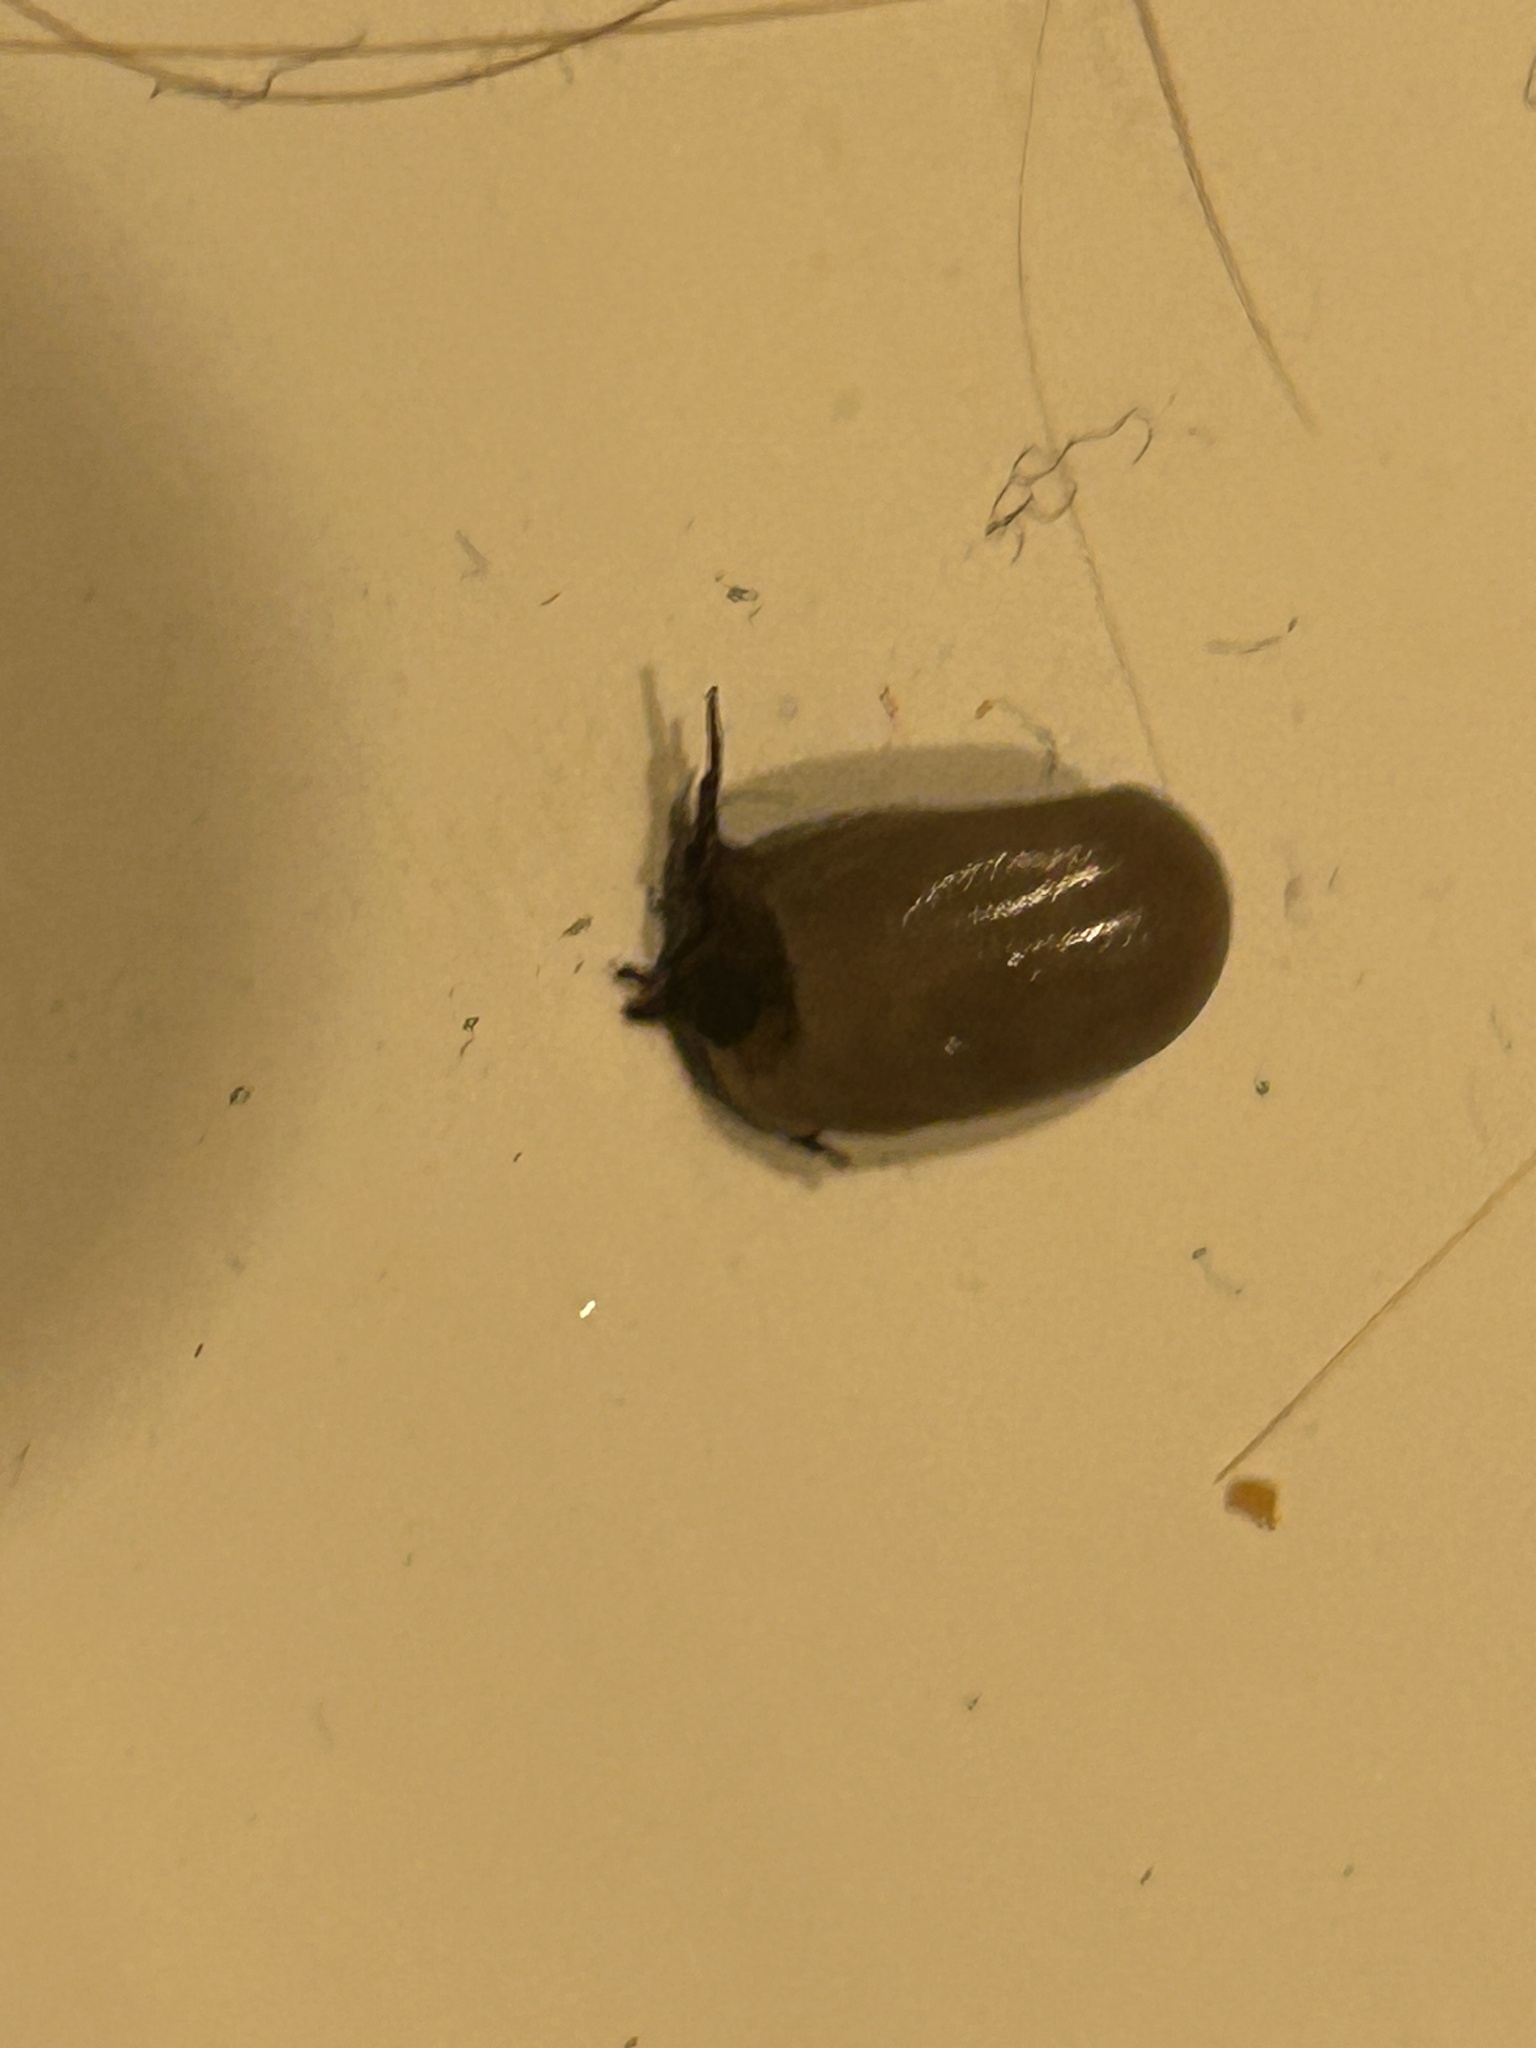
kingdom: Animalia
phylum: Arthropoda
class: Arachnida
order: Ixodida
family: Ixodidae
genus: Ixodes
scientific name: Ixodes scapularis
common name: Black legged tick
